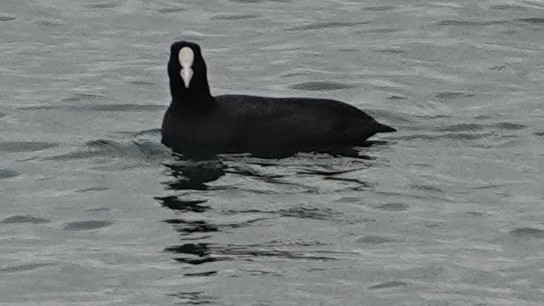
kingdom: Animalia
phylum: Chordata
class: Aves
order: Gruiformes
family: Rallidae
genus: Fulica
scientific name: Fulica atra
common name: Eurasian coot
